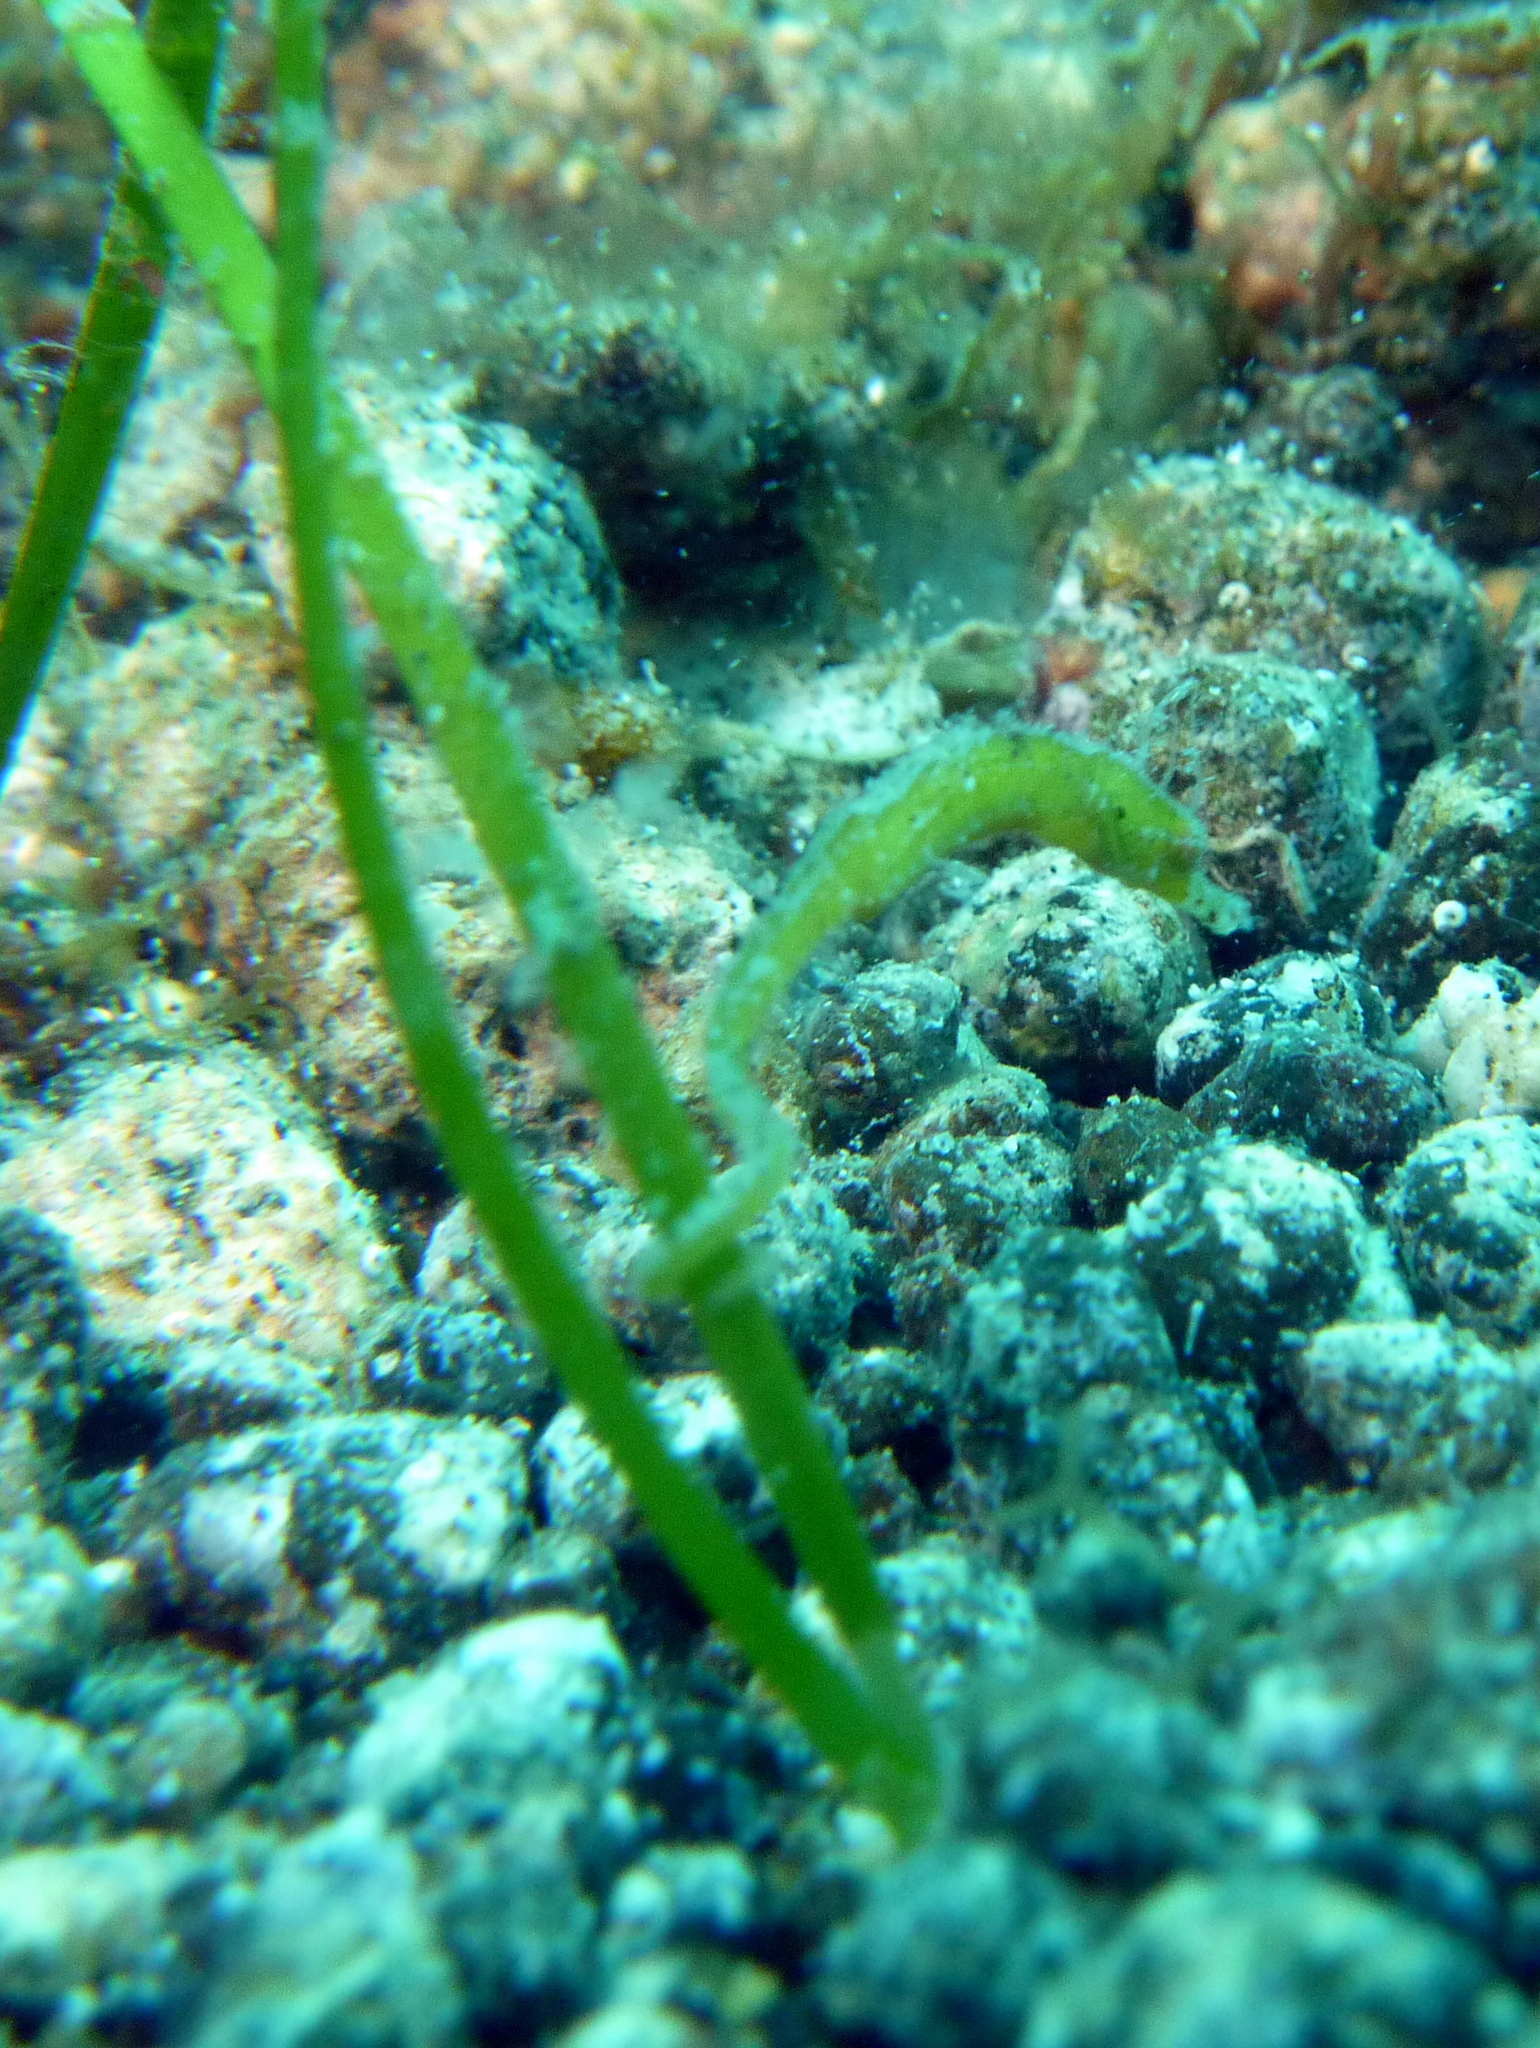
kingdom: Animalia
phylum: Chordata
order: Syngnathiformes
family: Syngnathidae
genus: Acentronura
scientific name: Acentronura breviperula
